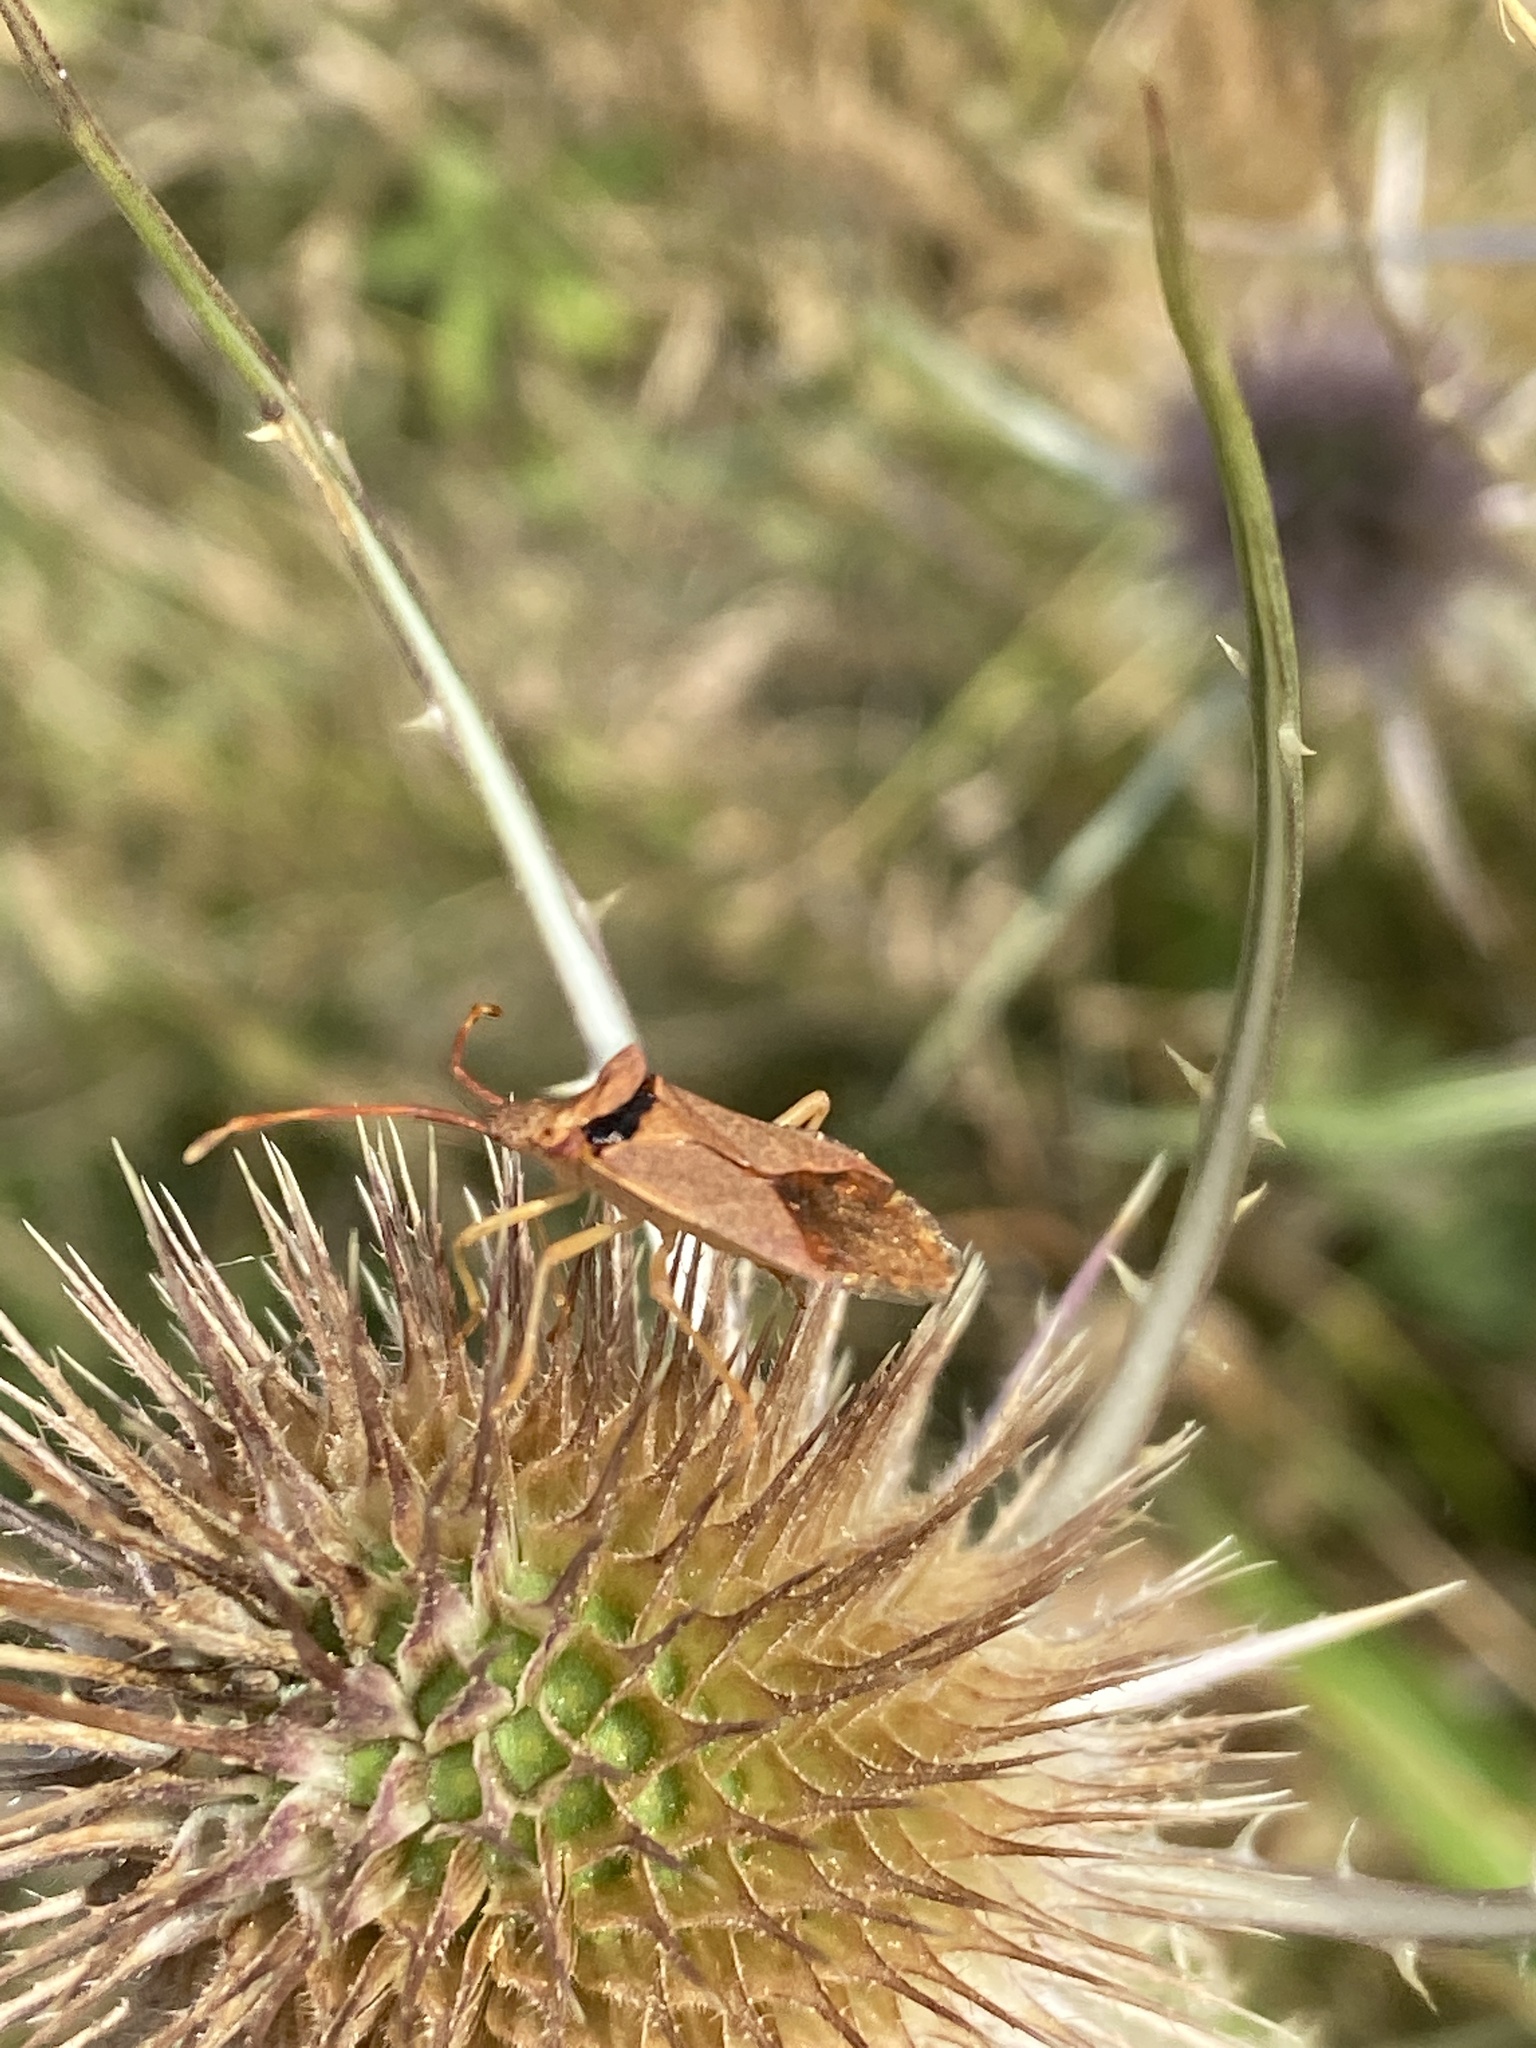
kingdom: Animalia
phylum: Arthropoda
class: Insecta
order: Hemiptera
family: Miridae
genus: Pantilius
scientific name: Pantilius tunicatus
